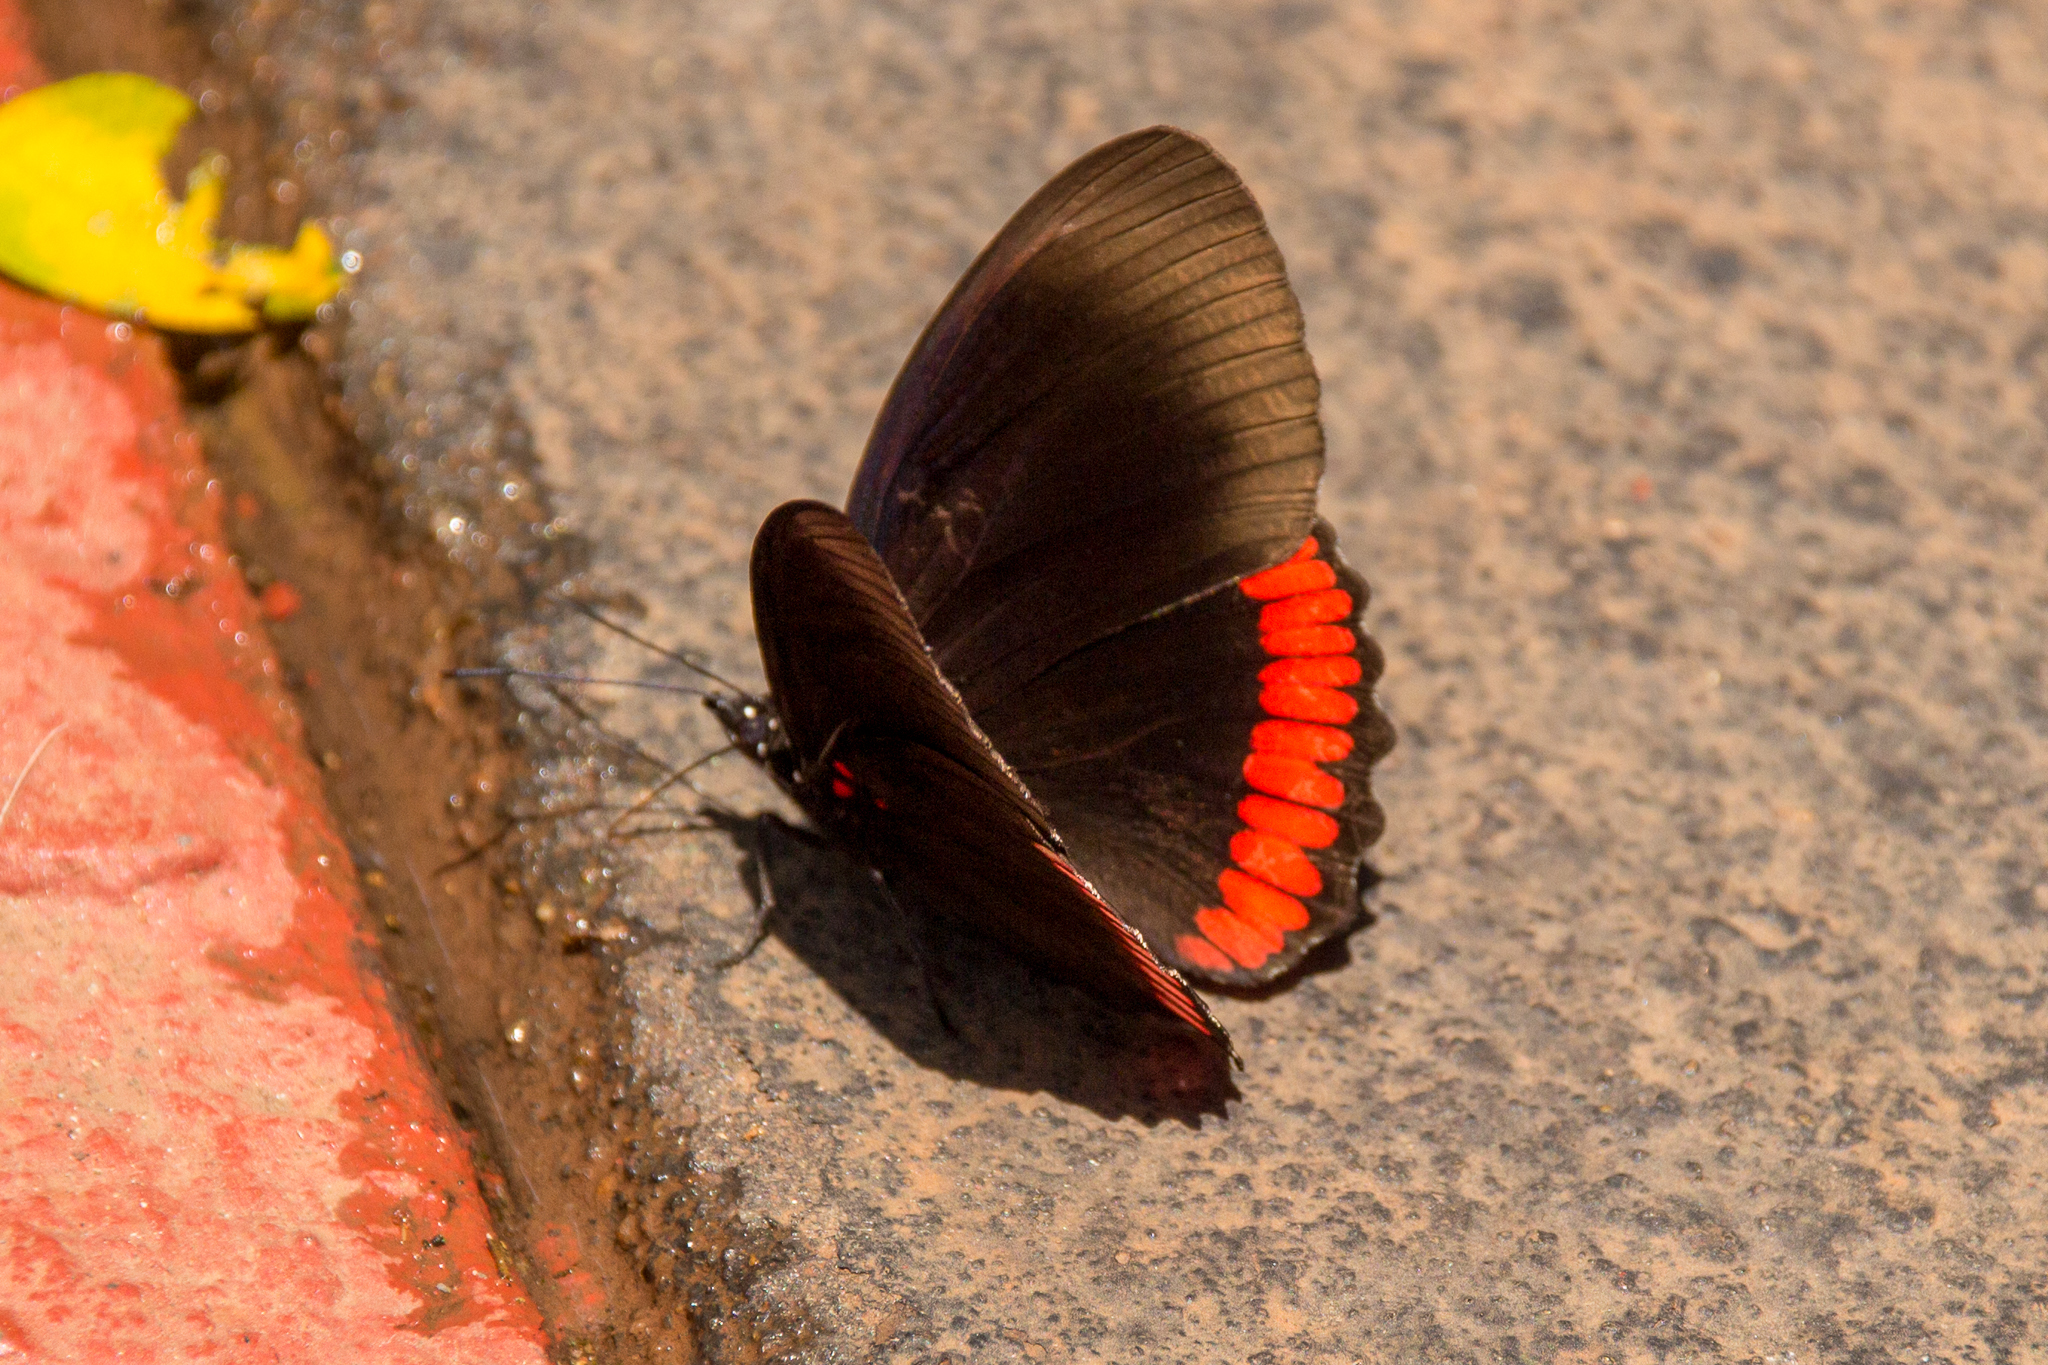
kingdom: Animalia
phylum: Arthropoda
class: Insecta
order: Lepidoptera
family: Sesiidae
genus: Sesia
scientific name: Sesia Biblis hyperia
